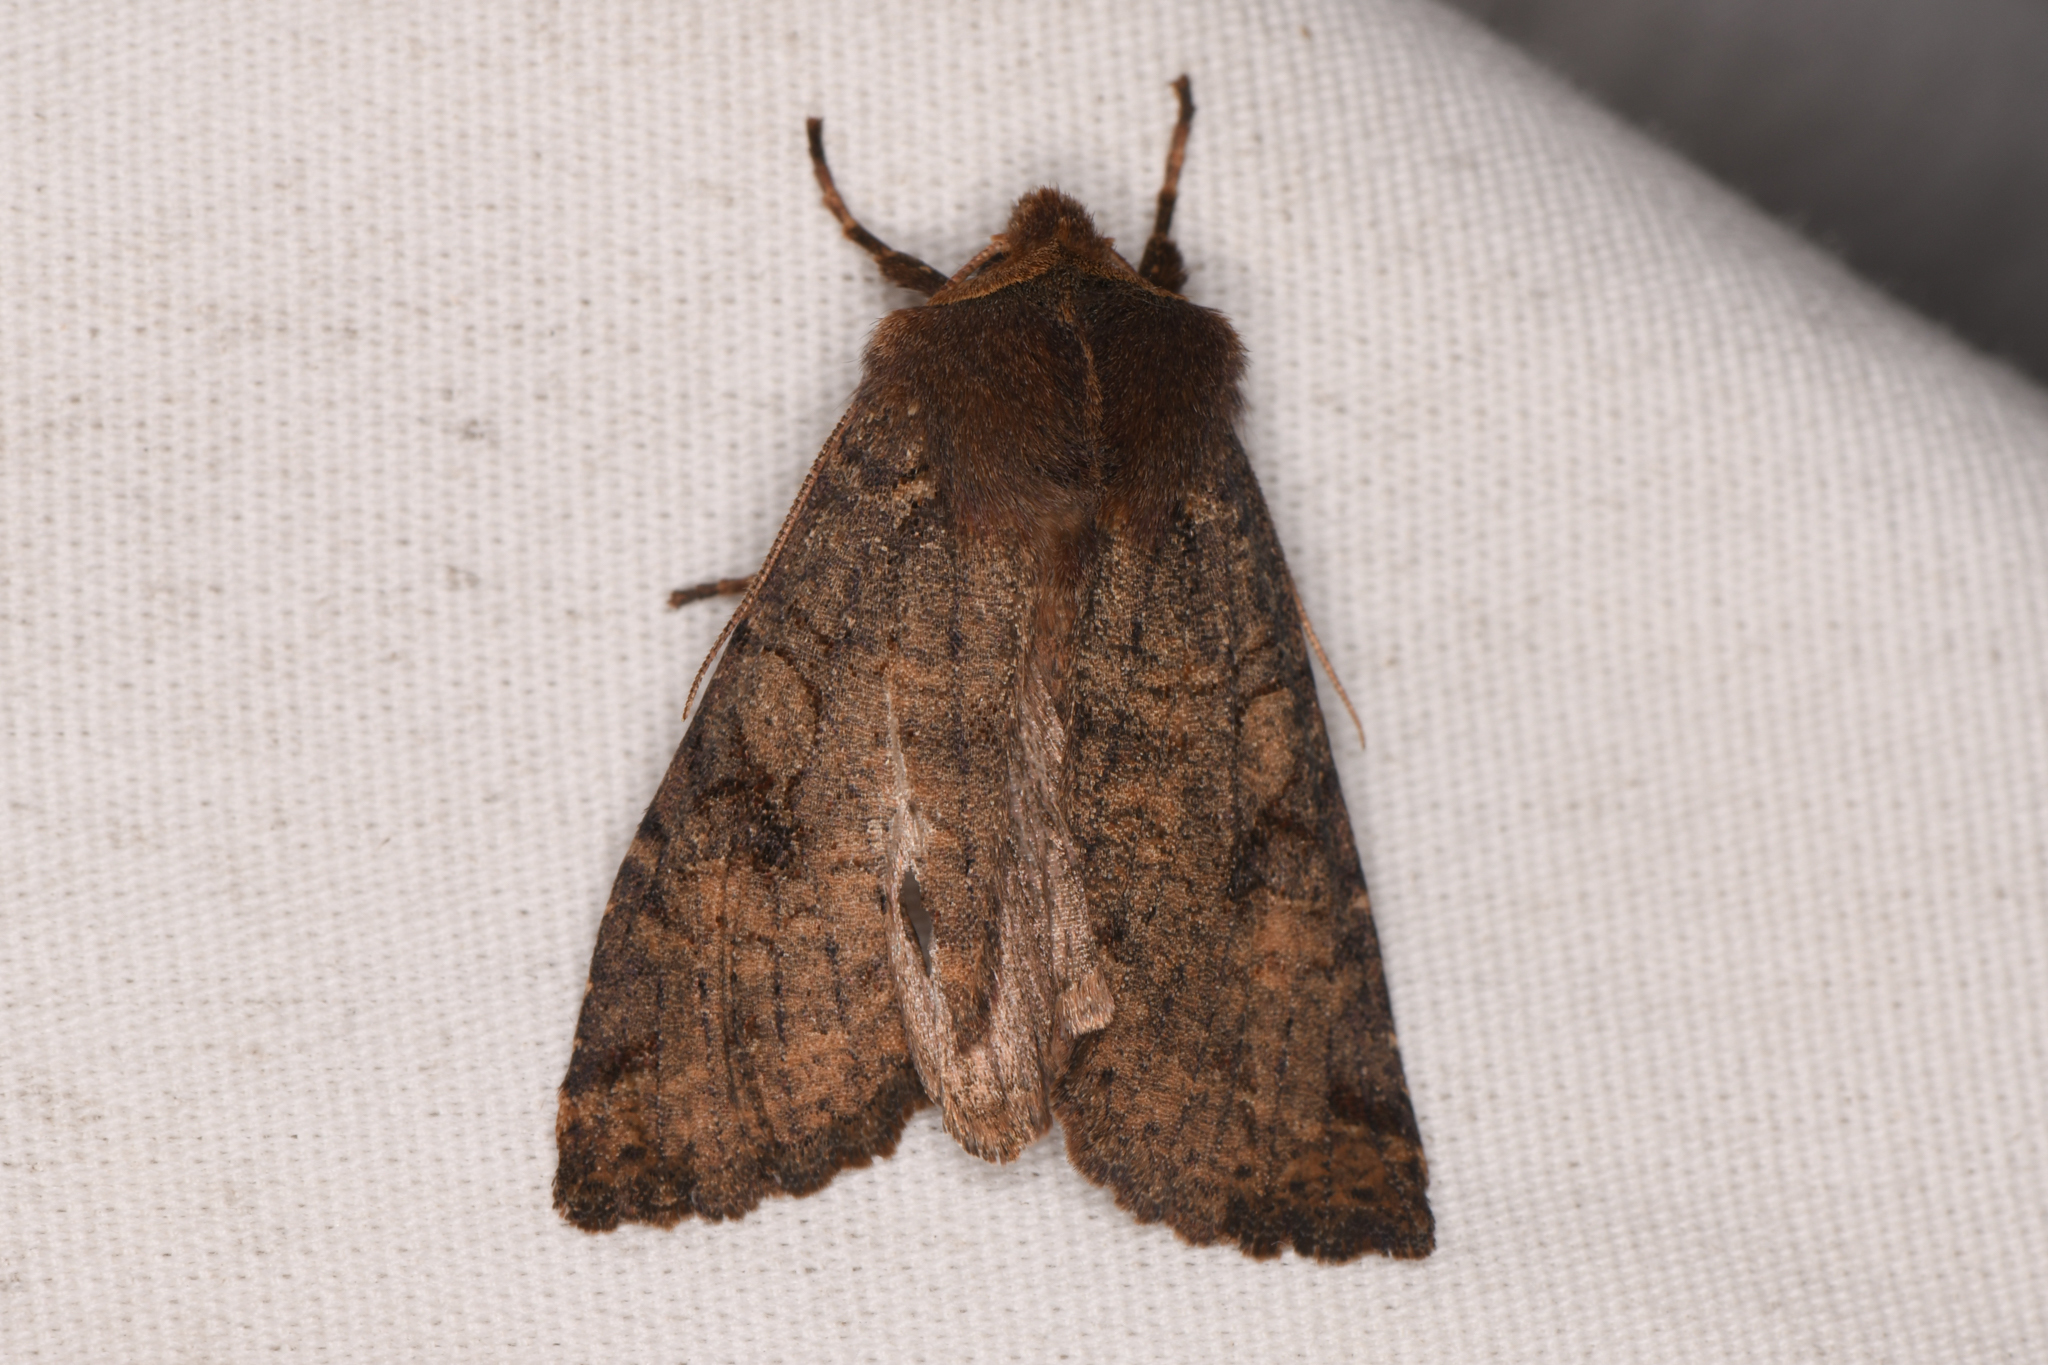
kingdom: Animalia
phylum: Arthropoda
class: Insecta
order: Lepidoptera
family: Noctuidae
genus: Orthosia
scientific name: Orthosia praeses
